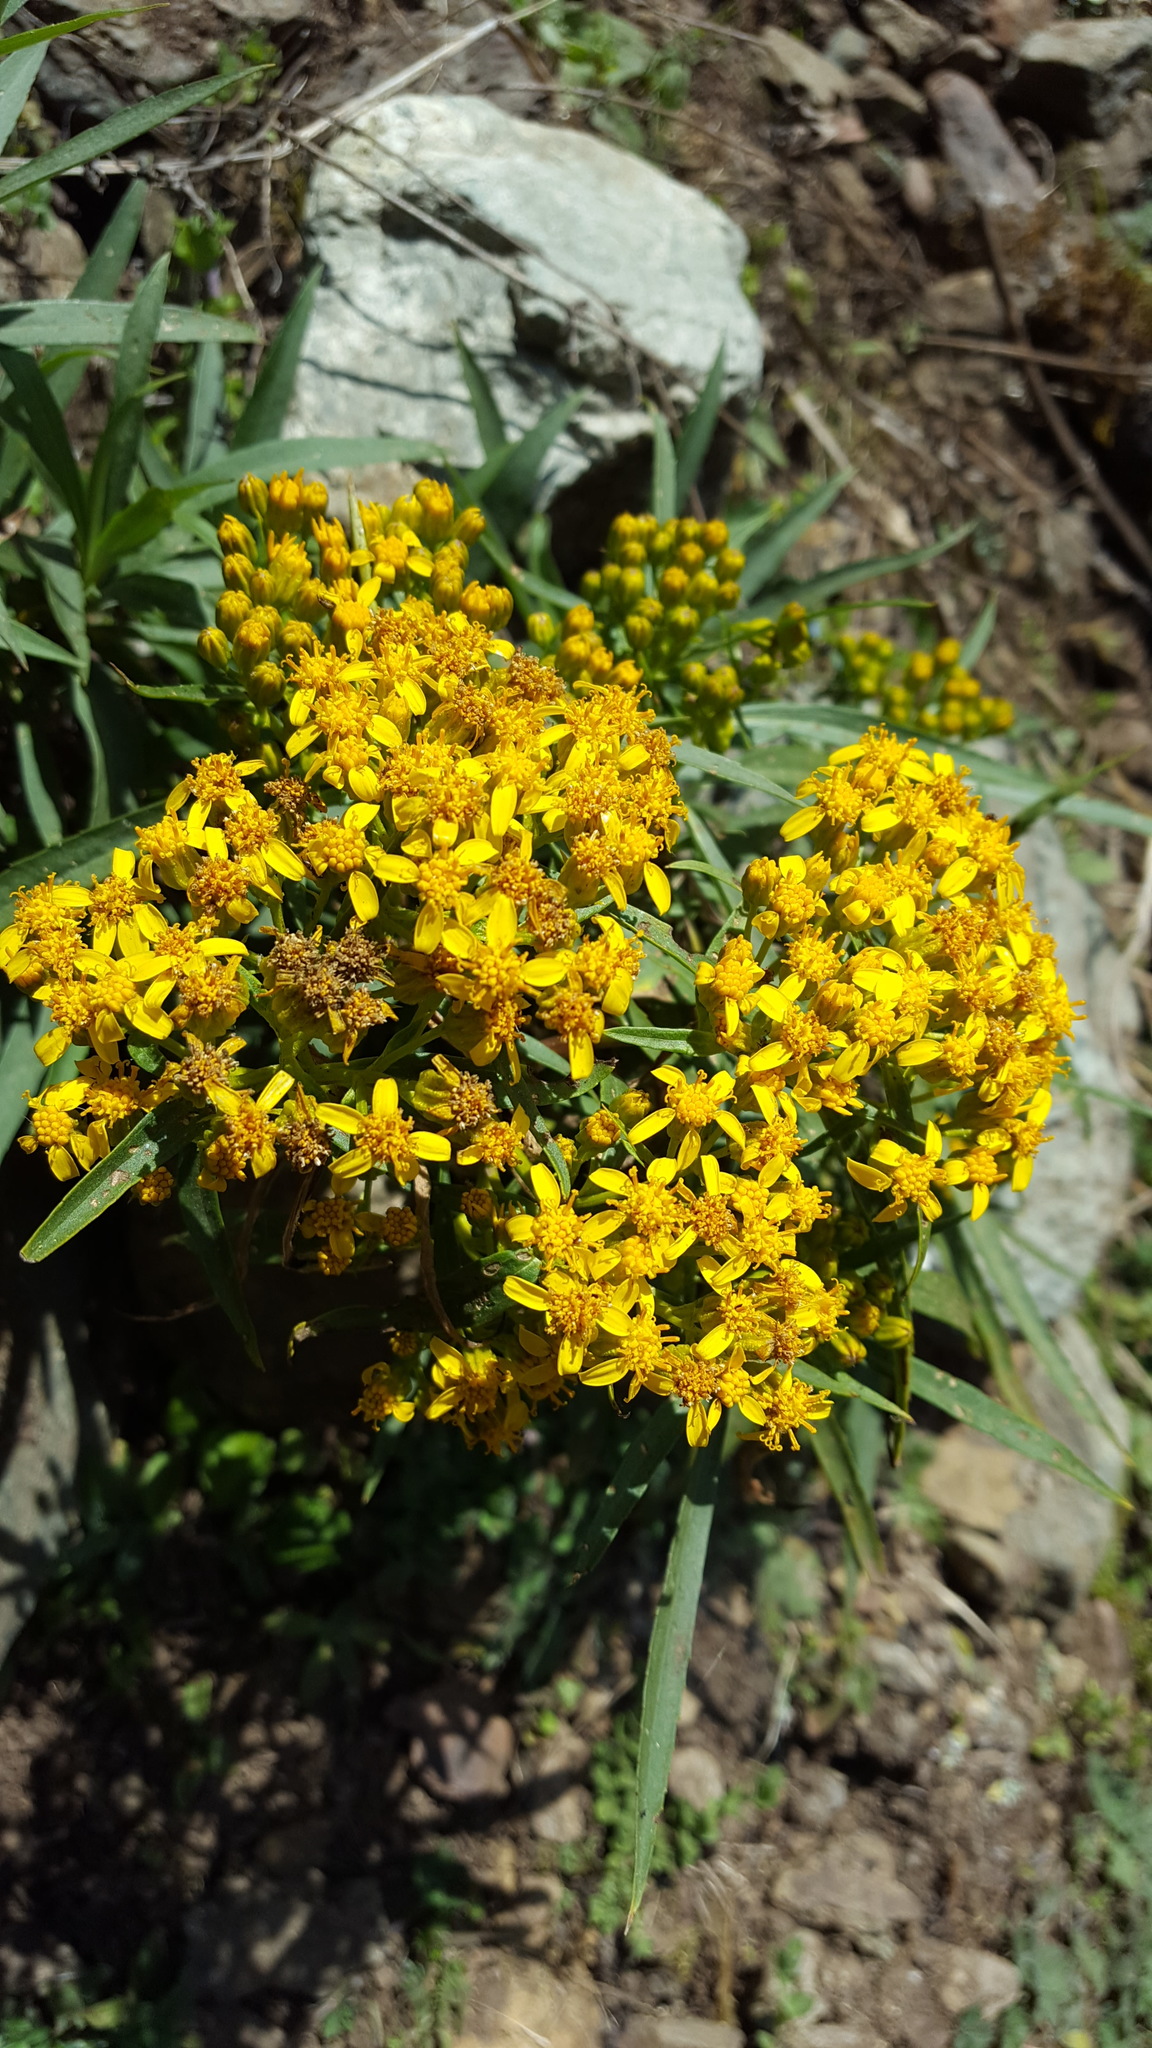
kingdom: Plantae
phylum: Tracheophyta
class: Magnoliopsida
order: Asterales
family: Asteraceae
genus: Barkleyanthus
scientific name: Barkleyanthus salicifolius
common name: Willow ragwort
